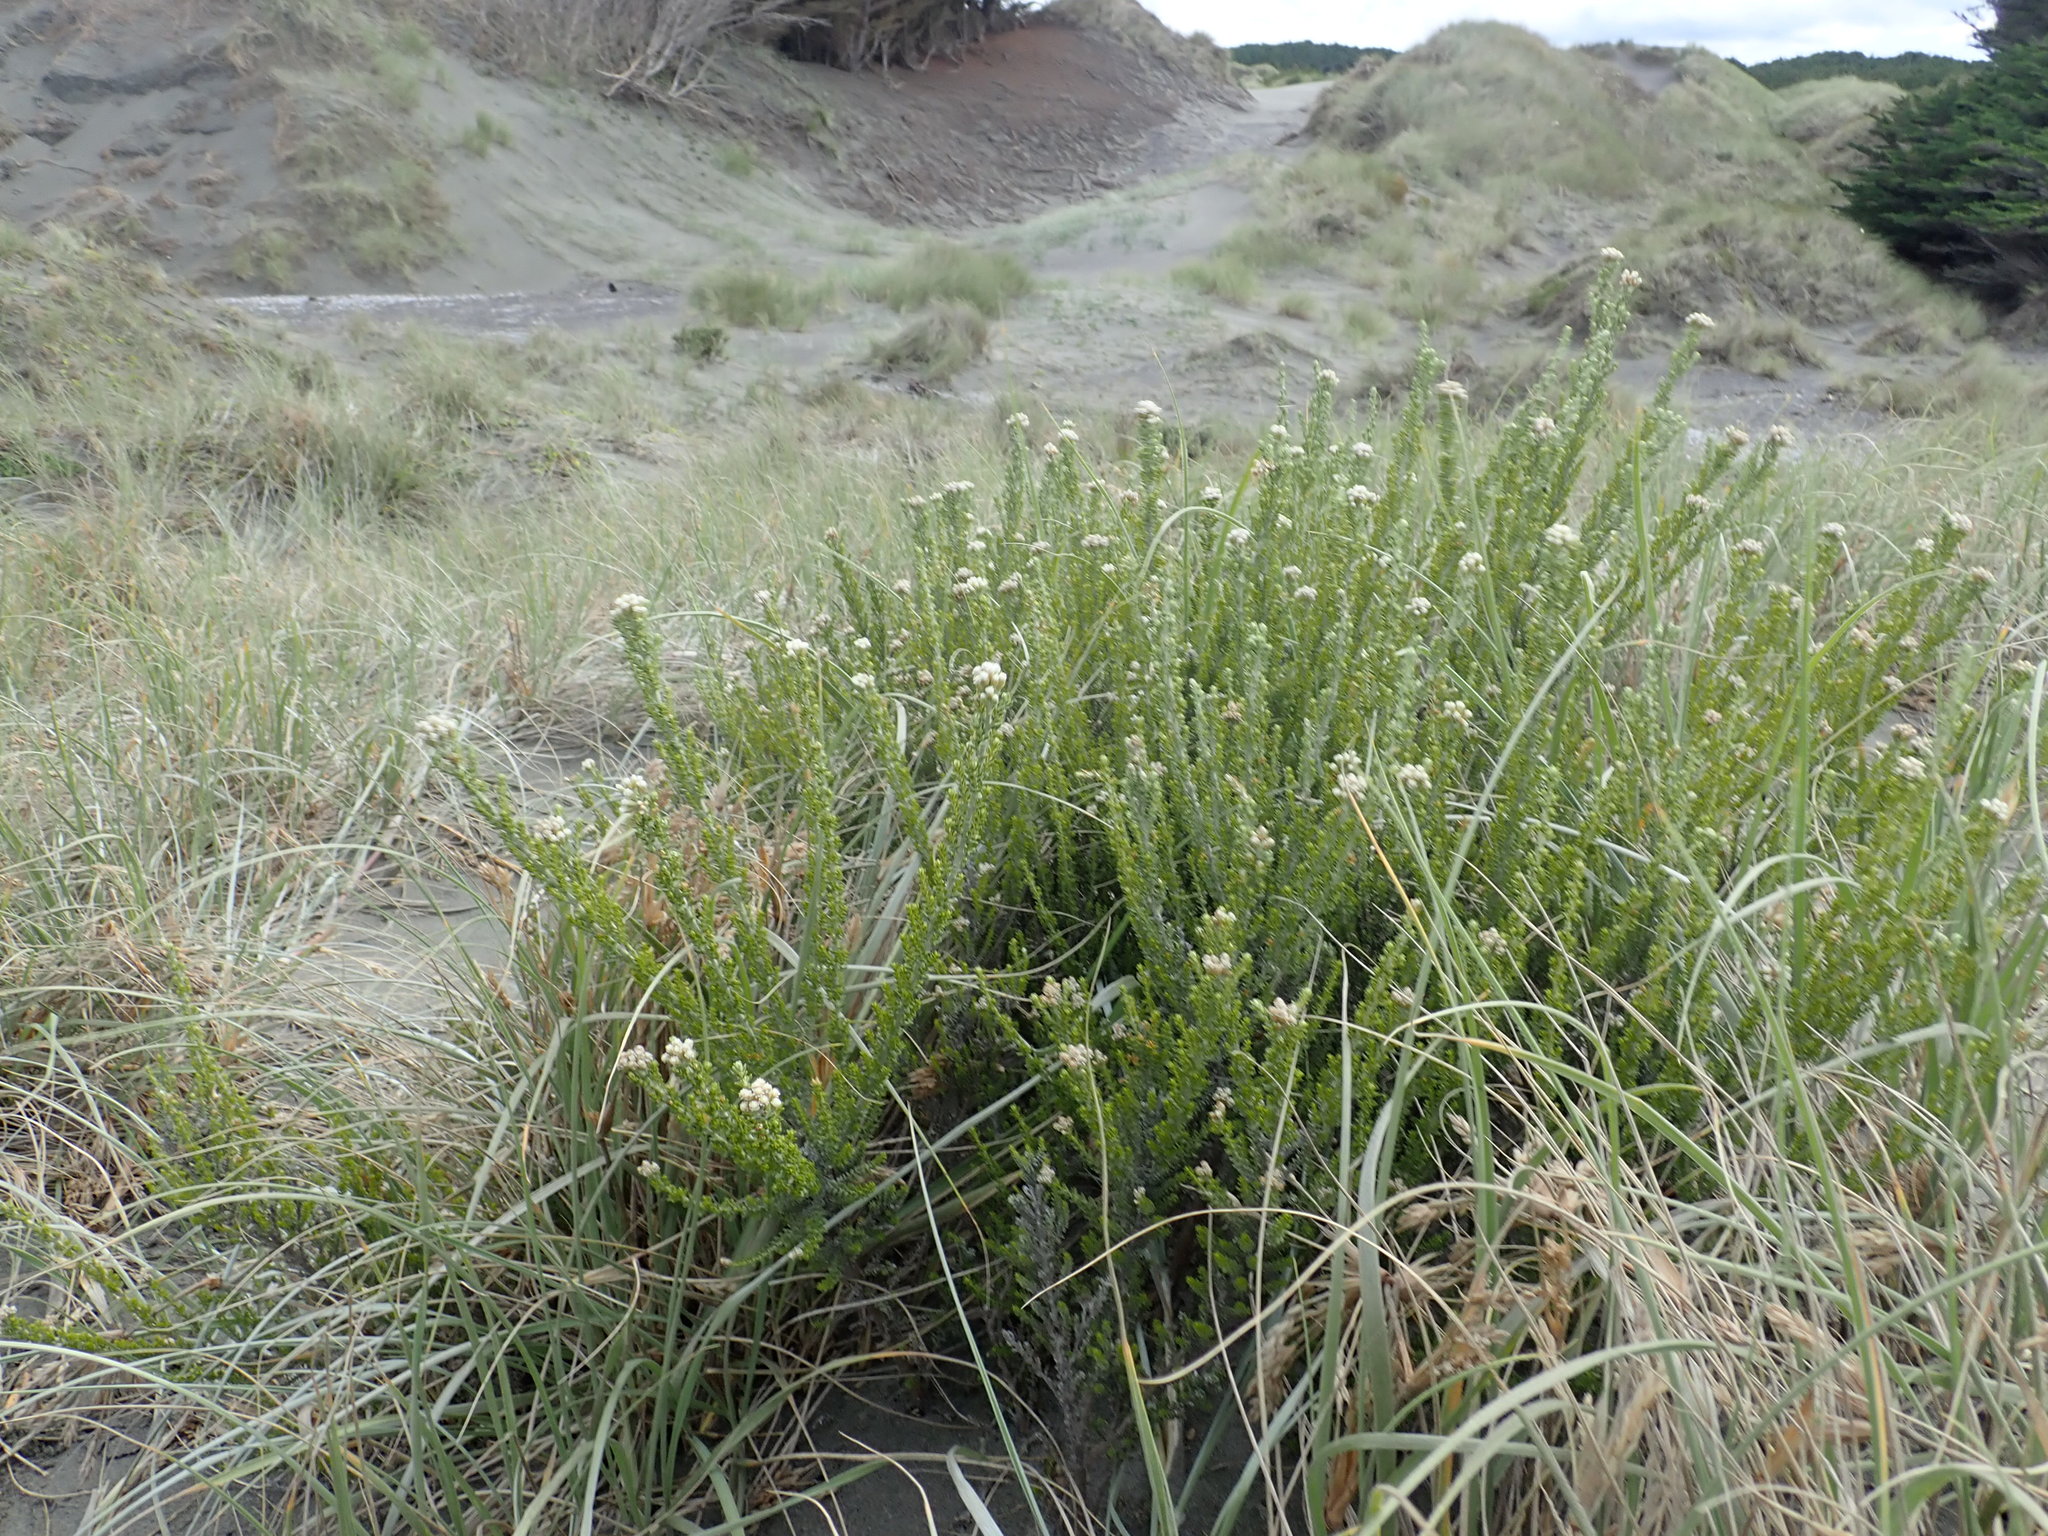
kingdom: Plantae
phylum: Tracheophyta
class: Magnoliopsida
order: Asterales
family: Asteraceae
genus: Ozothamnus
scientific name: Ozothamnus leptophyllus
